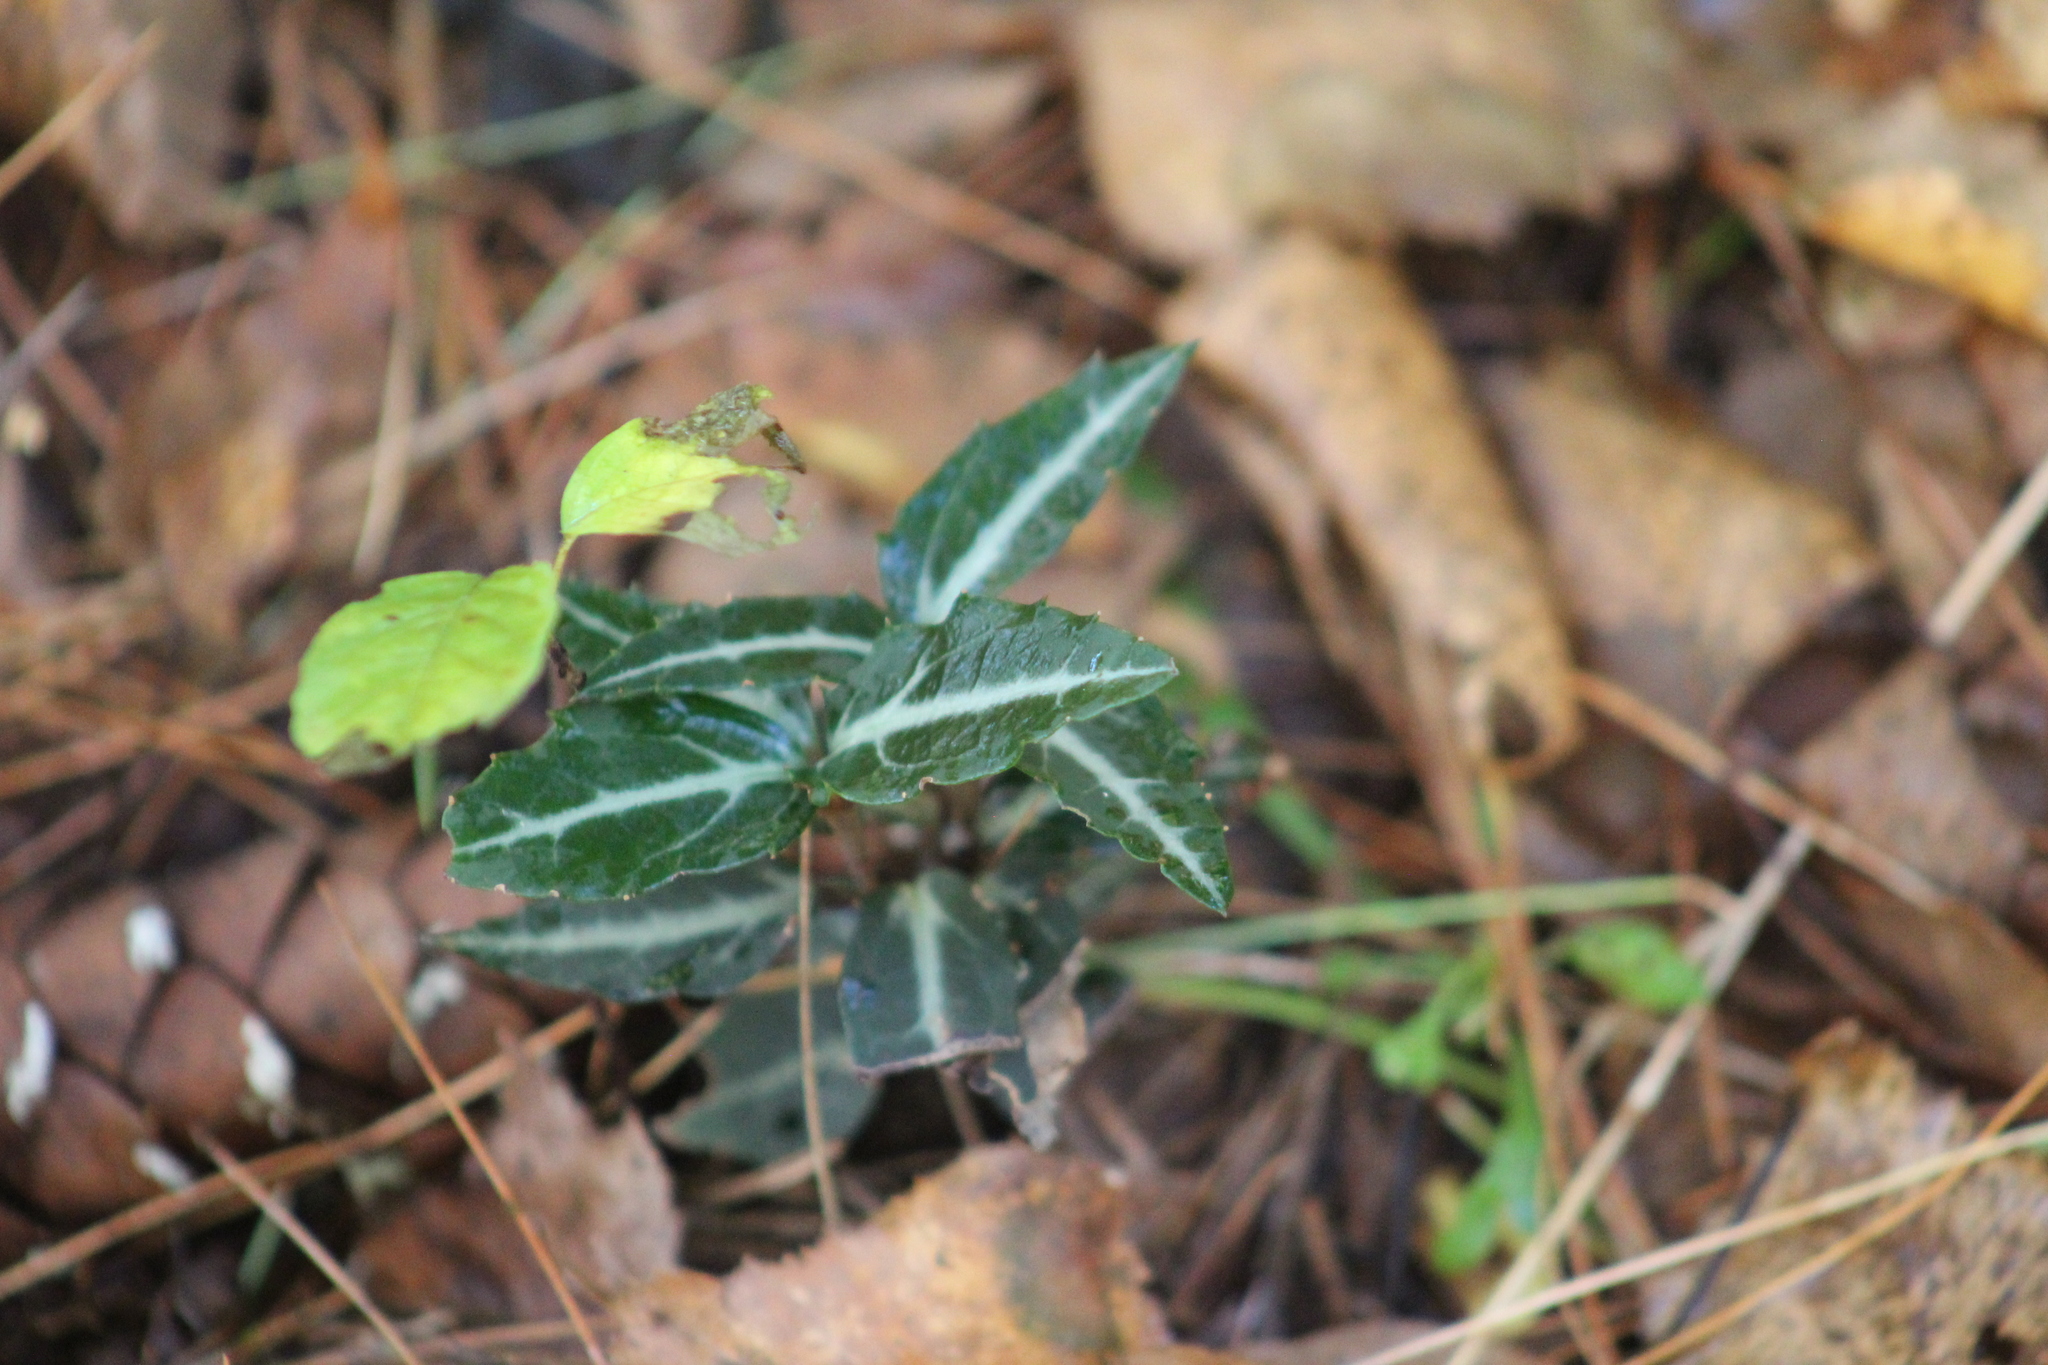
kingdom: Plantae
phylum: Tracheophyta
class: Magnoliopsida
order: Ericales
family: Ericaceae
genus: Chimaphila
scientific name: Chimaphila maculata
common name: Spotted pipsissewa
